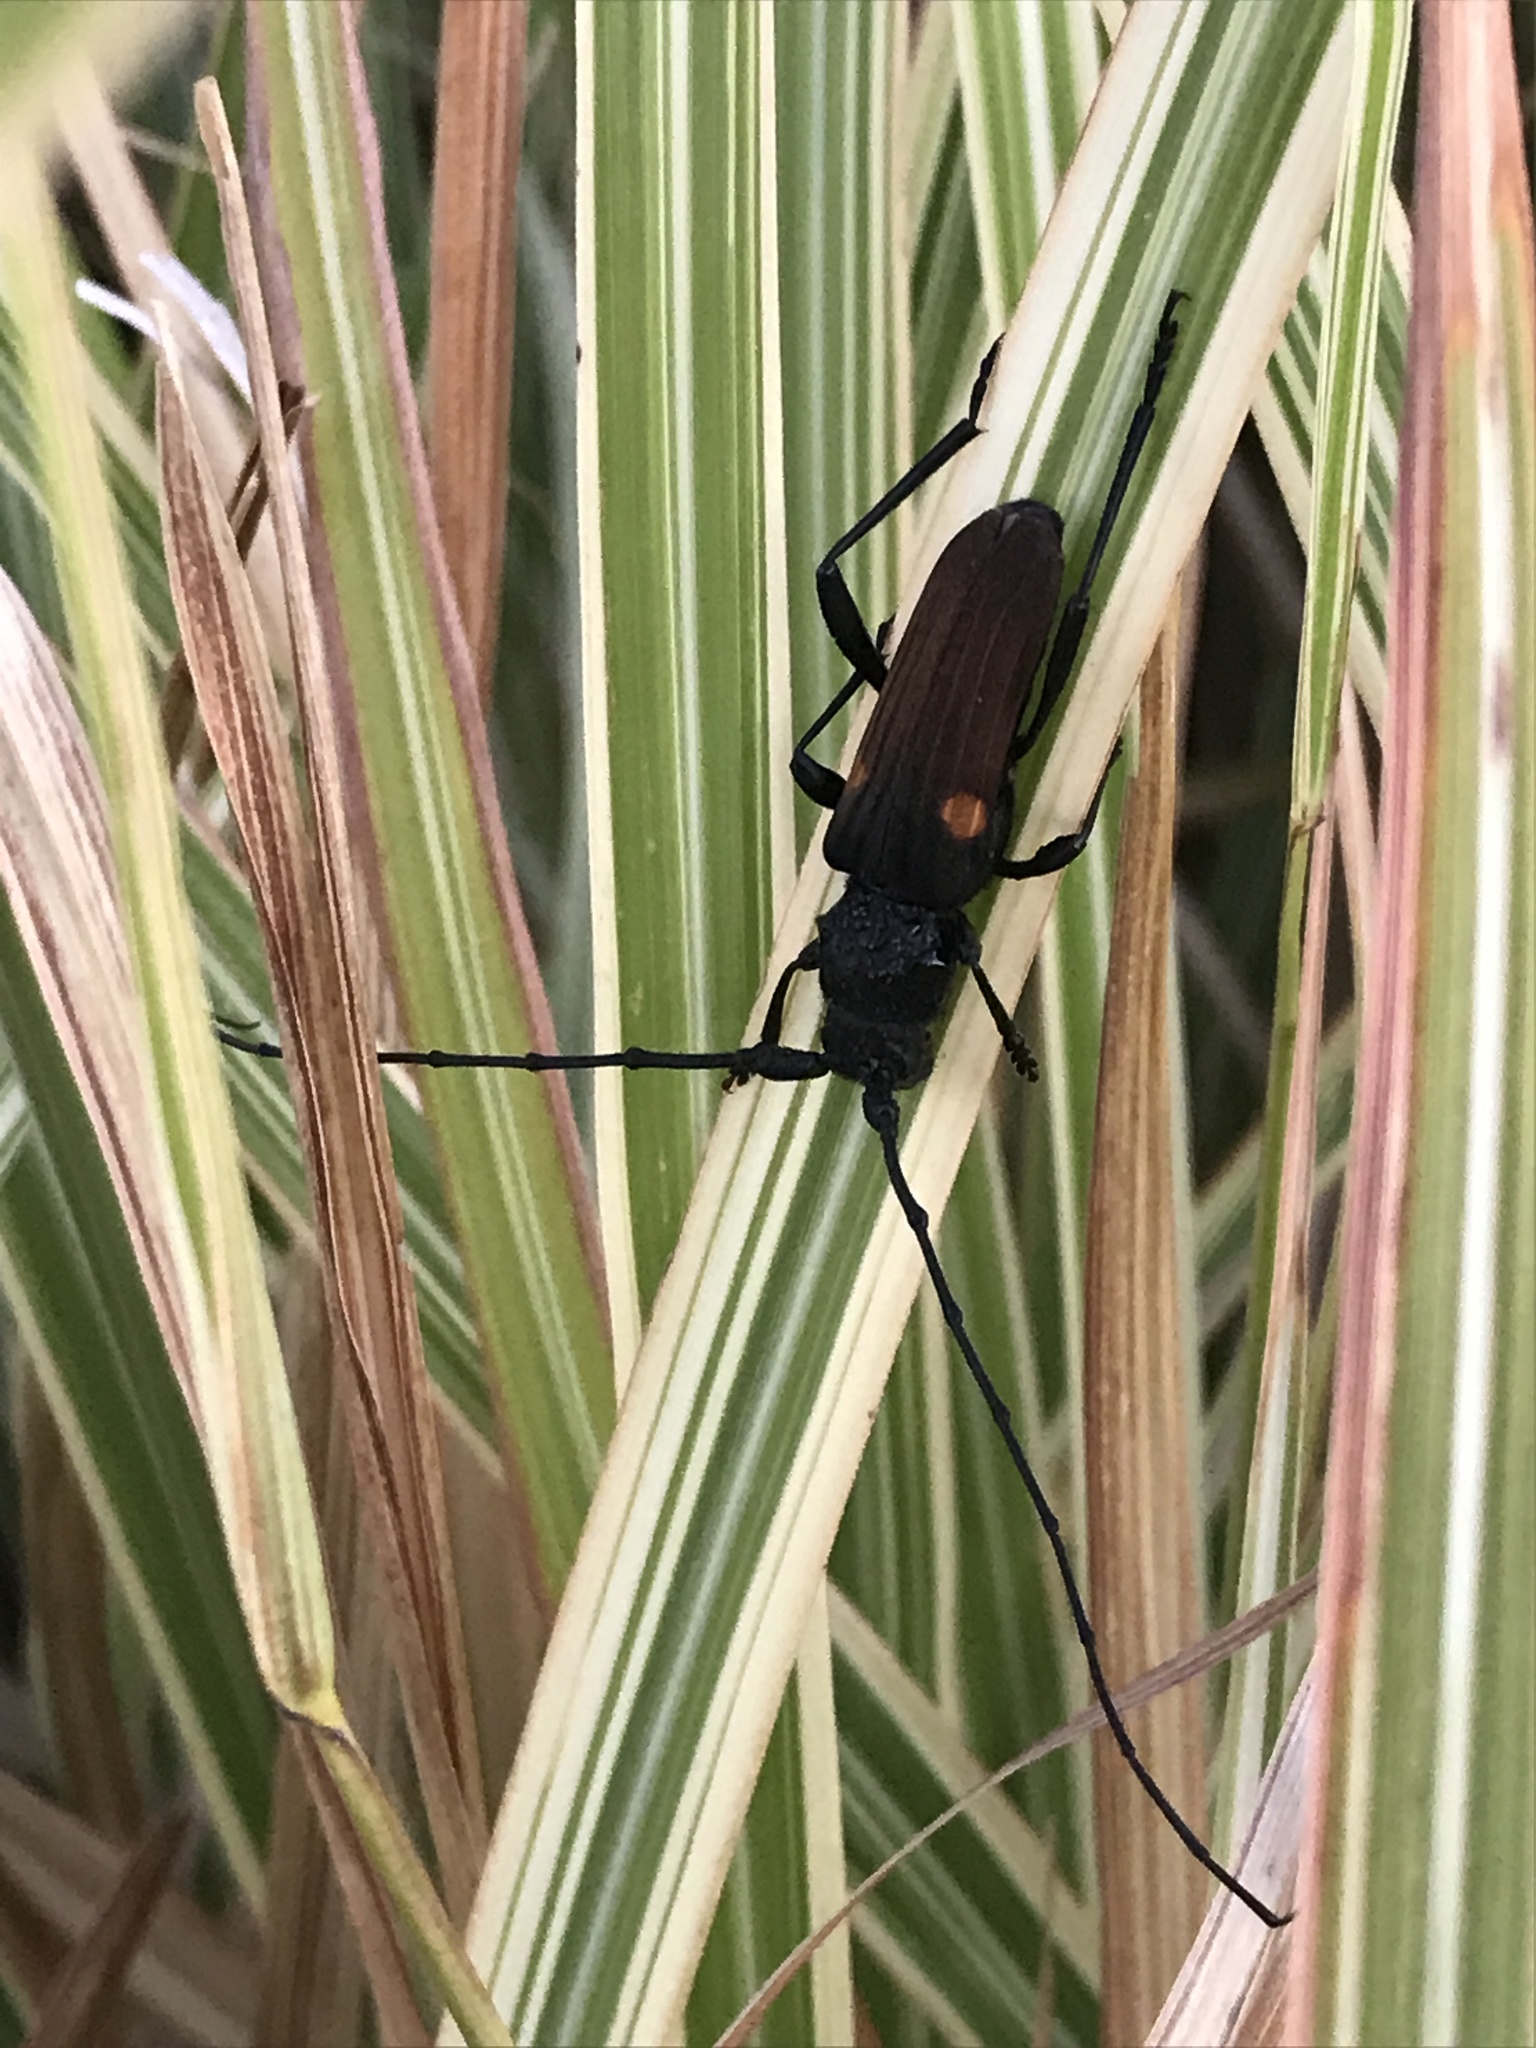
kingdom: Animalia
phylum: Arthropoda
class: Insecta
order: Coleoptera
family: Cerambycidae
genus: Tragidion
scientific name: Tragidion coquus
